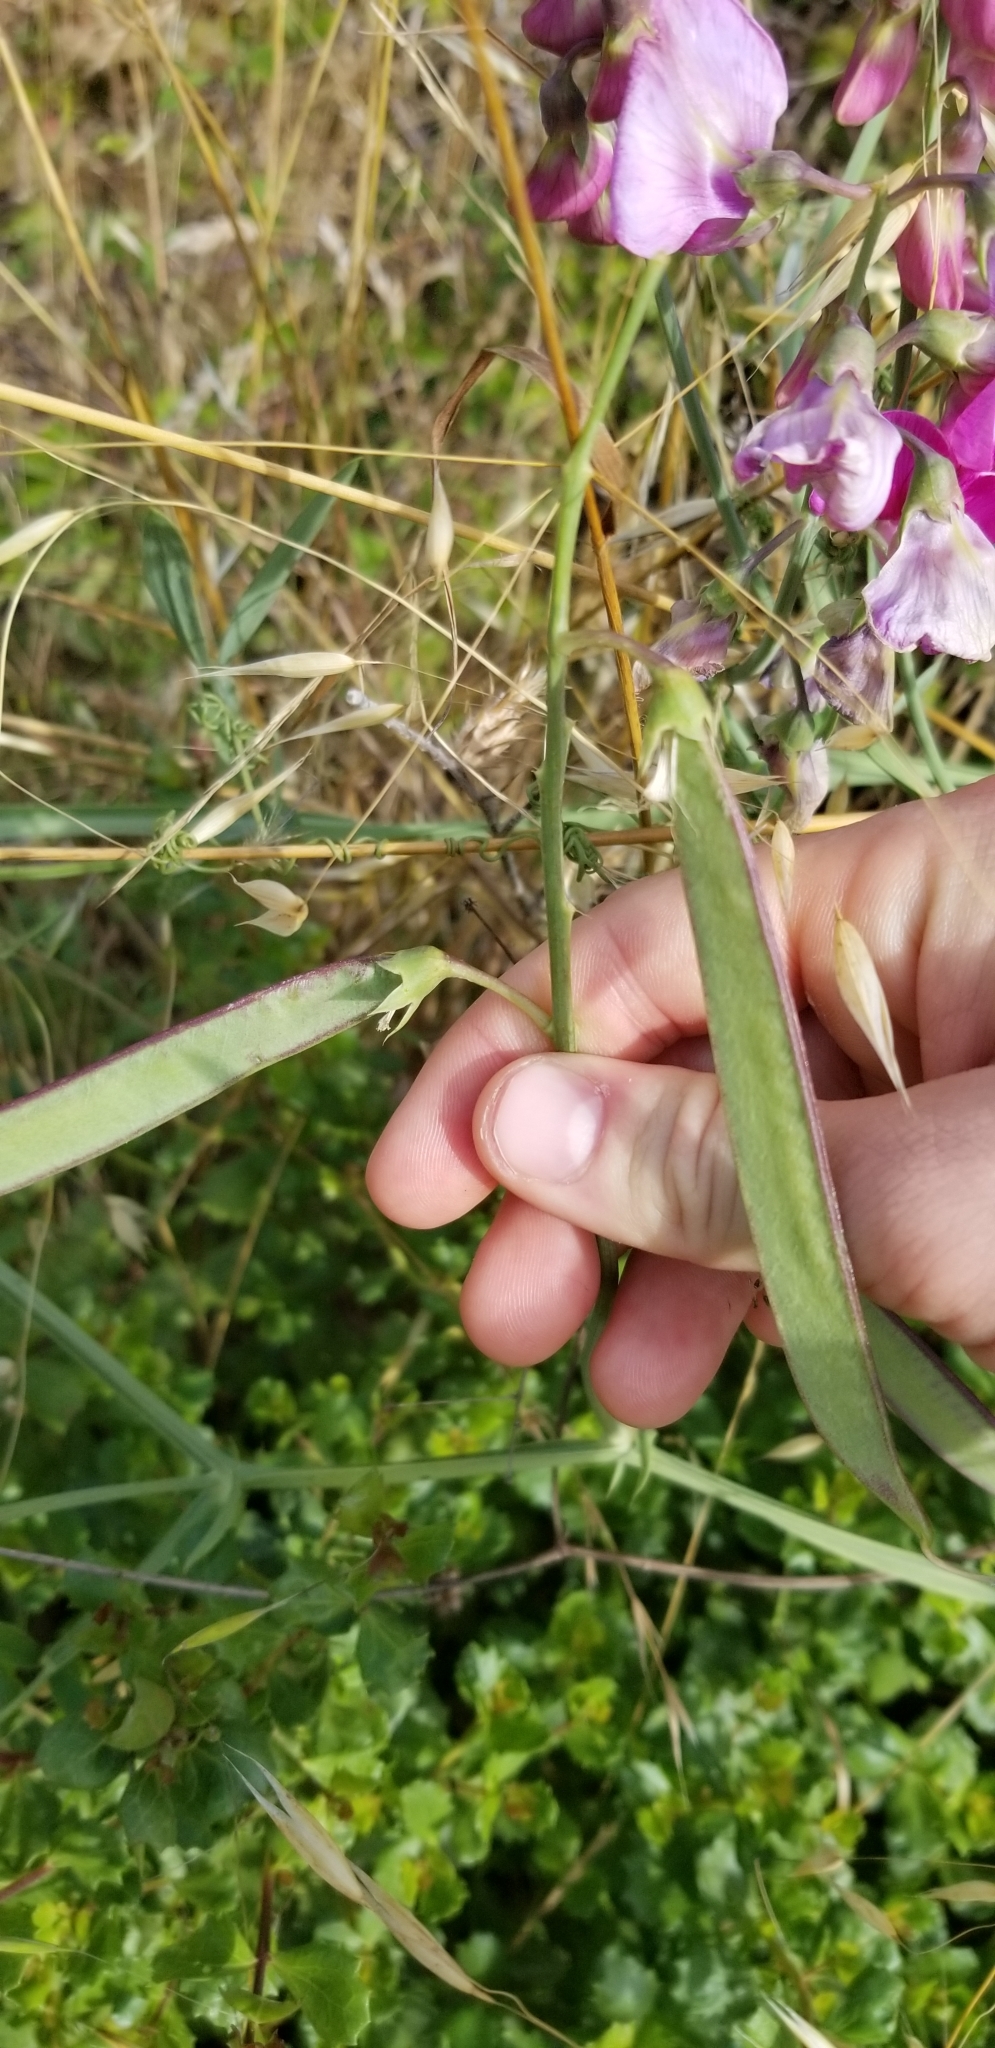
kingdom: Plantae
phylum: Tracheophyta
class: Magnoliopsida
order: Fabales
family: Fabaceae
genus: Lathyrus
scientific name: Lathyrus latifolius
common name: Perennial pea
